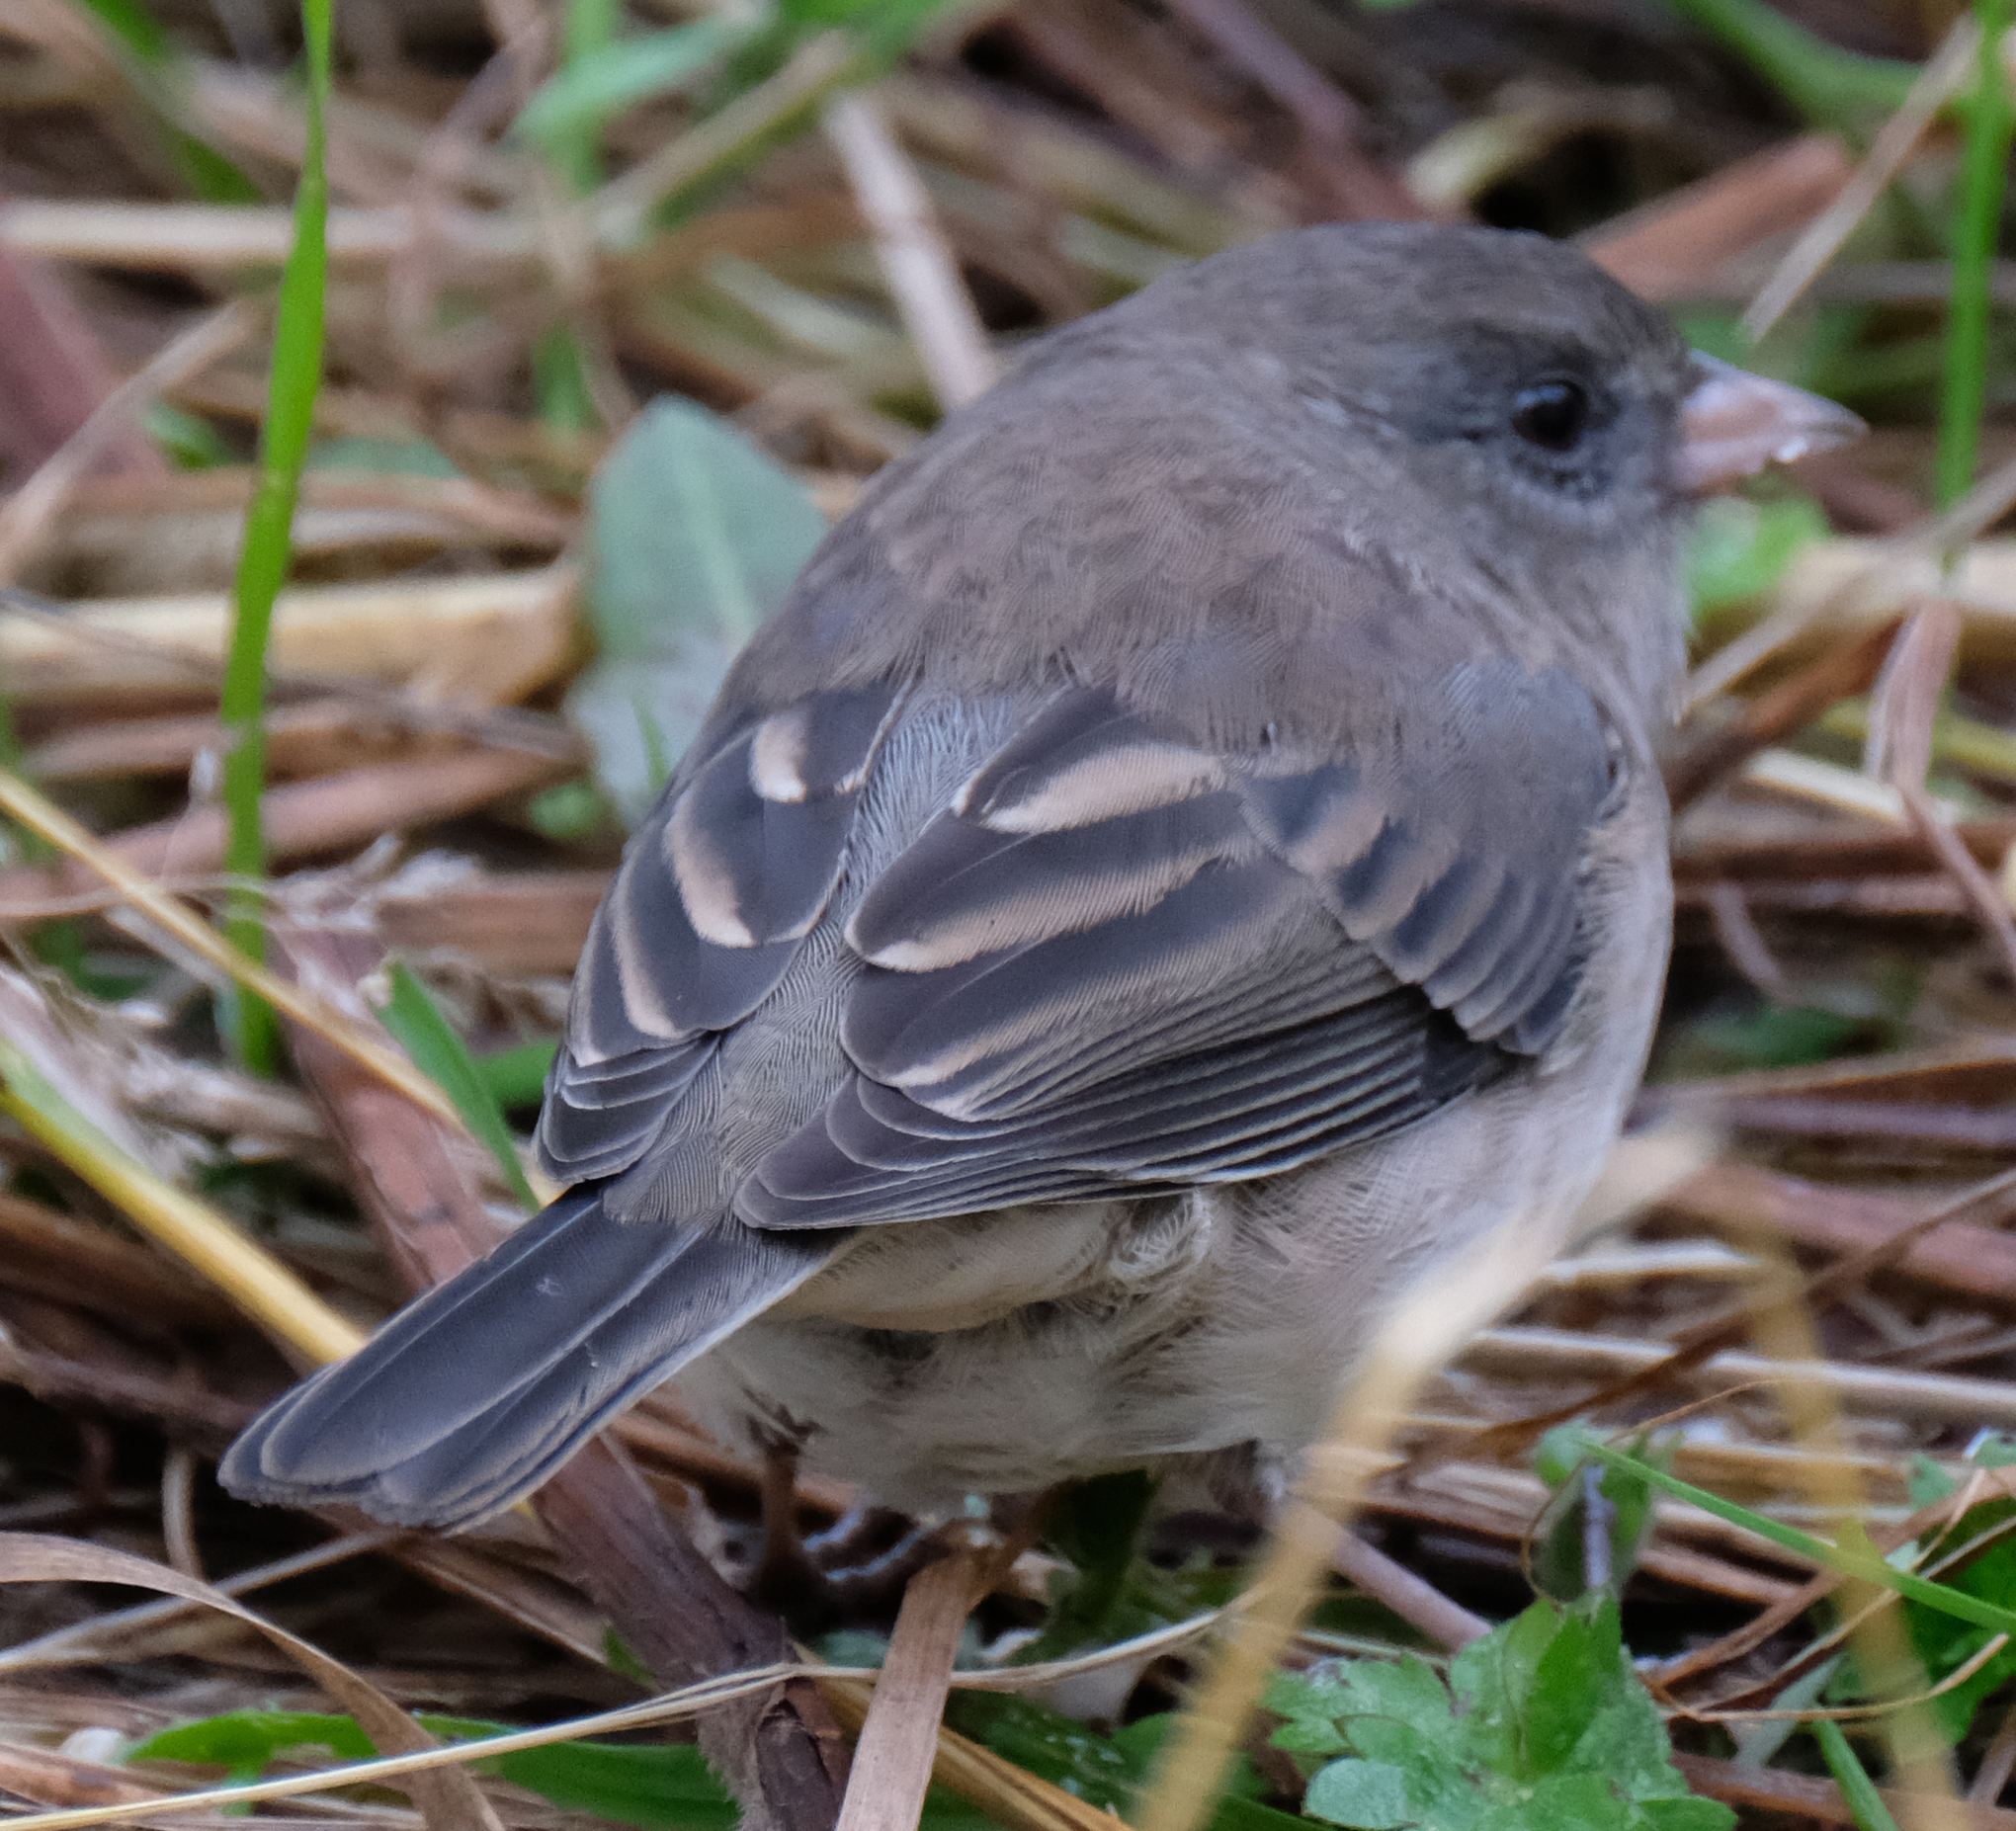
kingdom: Animalia
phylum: Chordata
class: Aves
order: Passeriformes
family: Passerellidae
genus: Junco
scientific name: Junco hyemalis
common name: Dark-eyed junco
